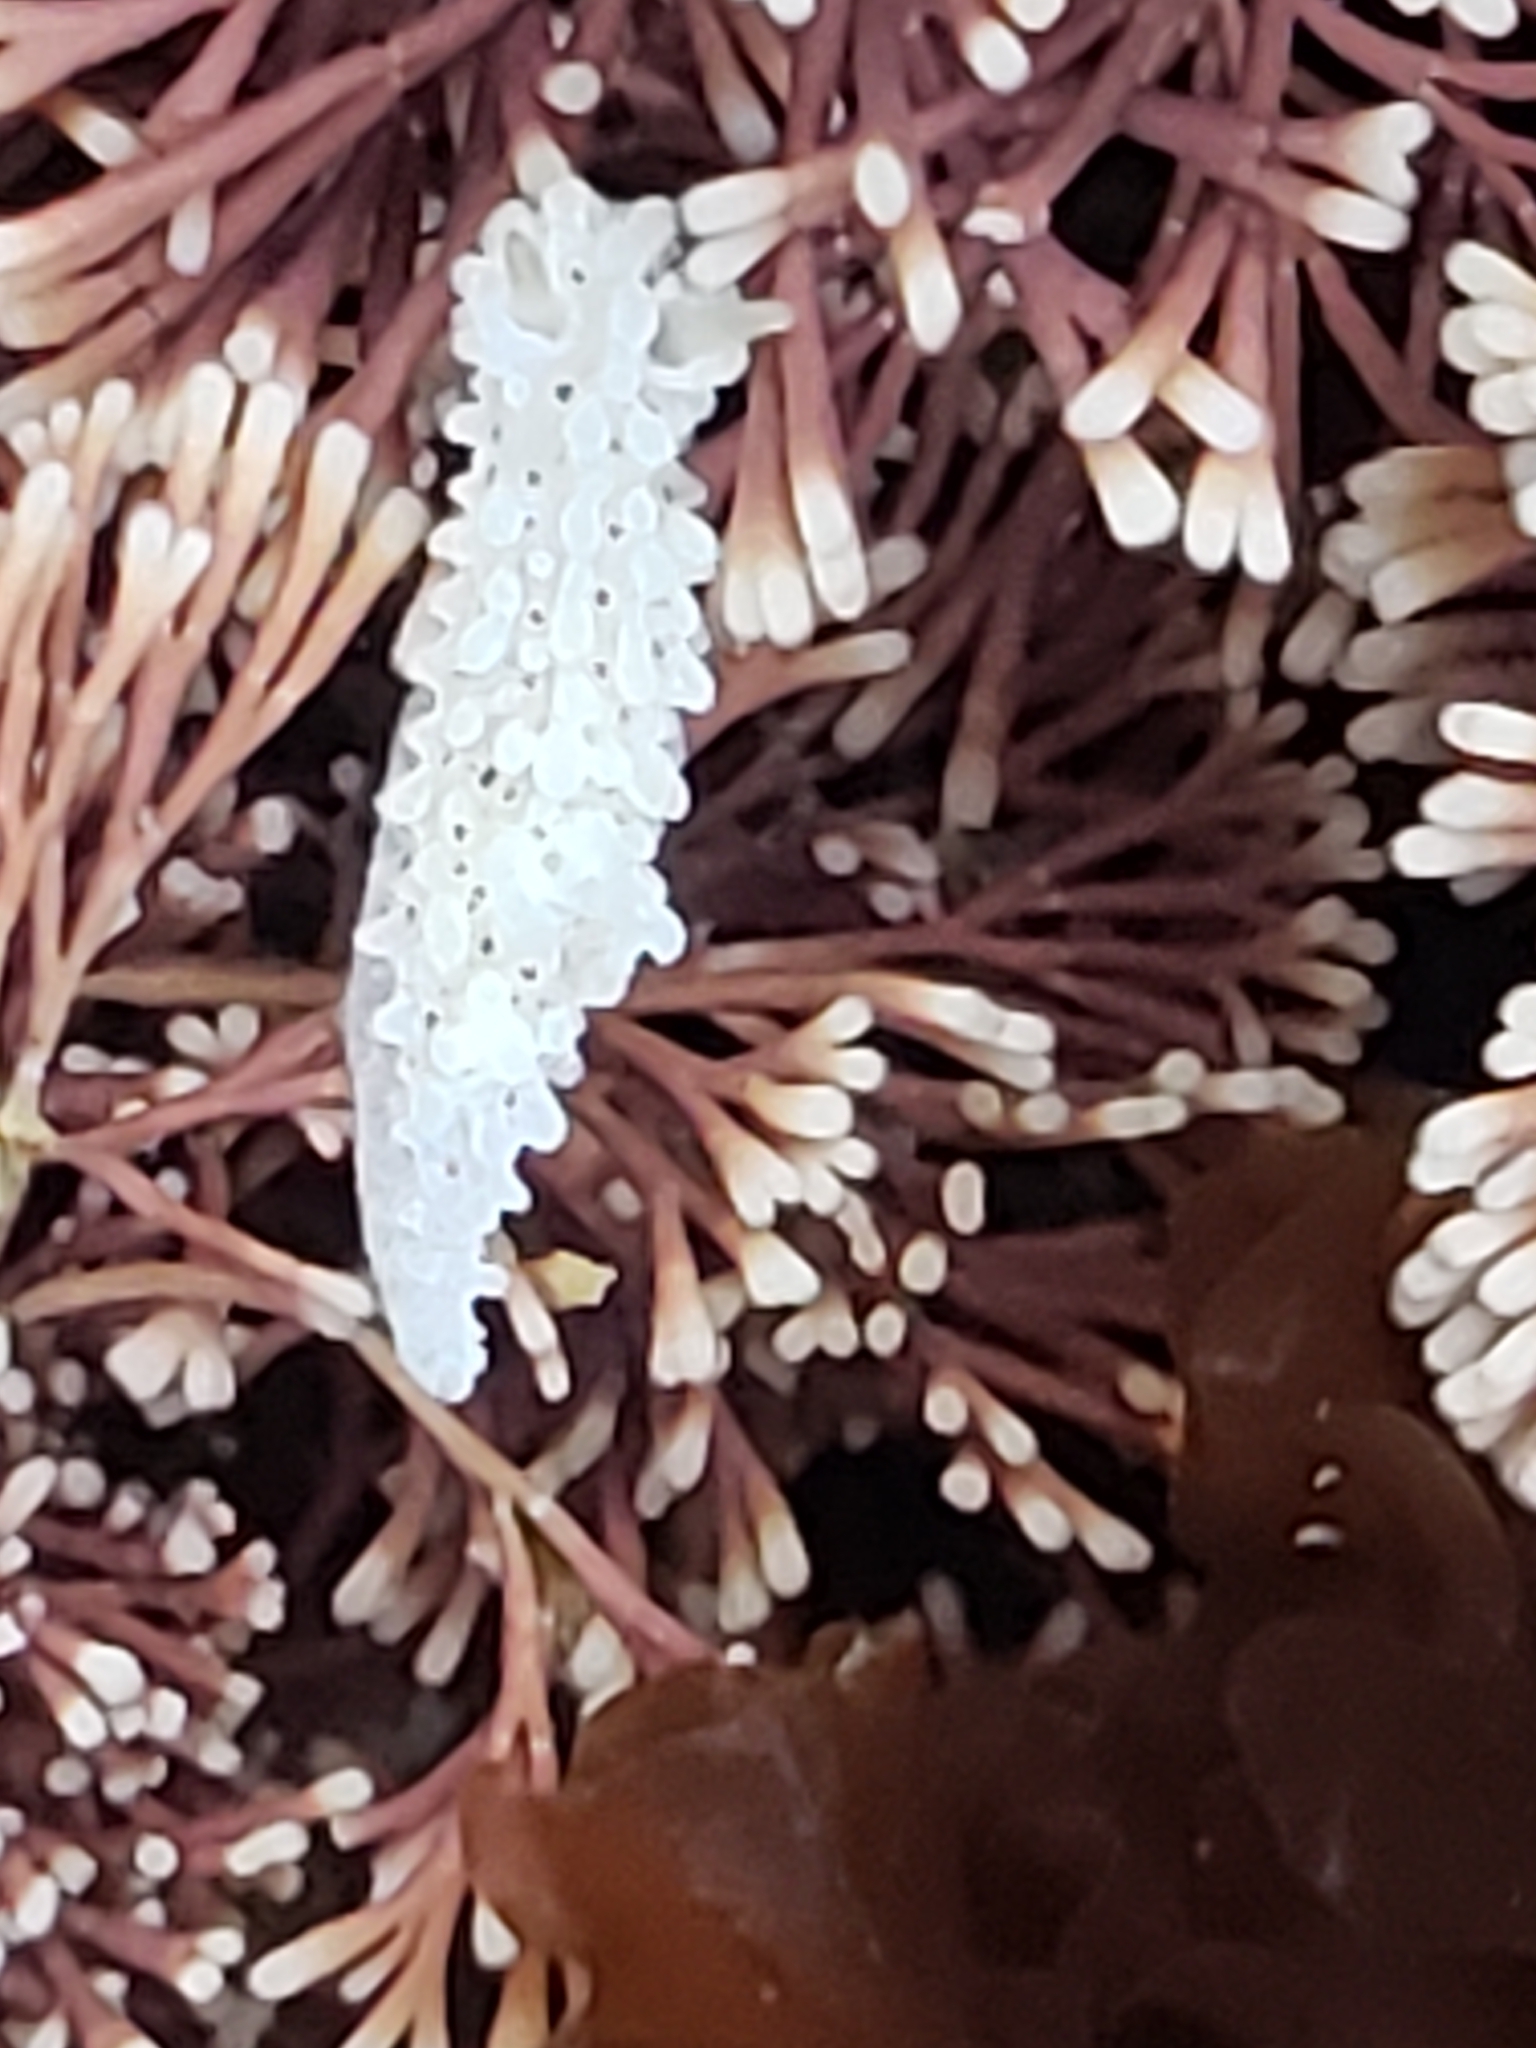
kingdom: Animalia
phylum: Mollusca
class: Gastropoda
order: Nudibranchia
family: Aegiridae
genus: Aegires
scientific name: Aegires albopunctatus
